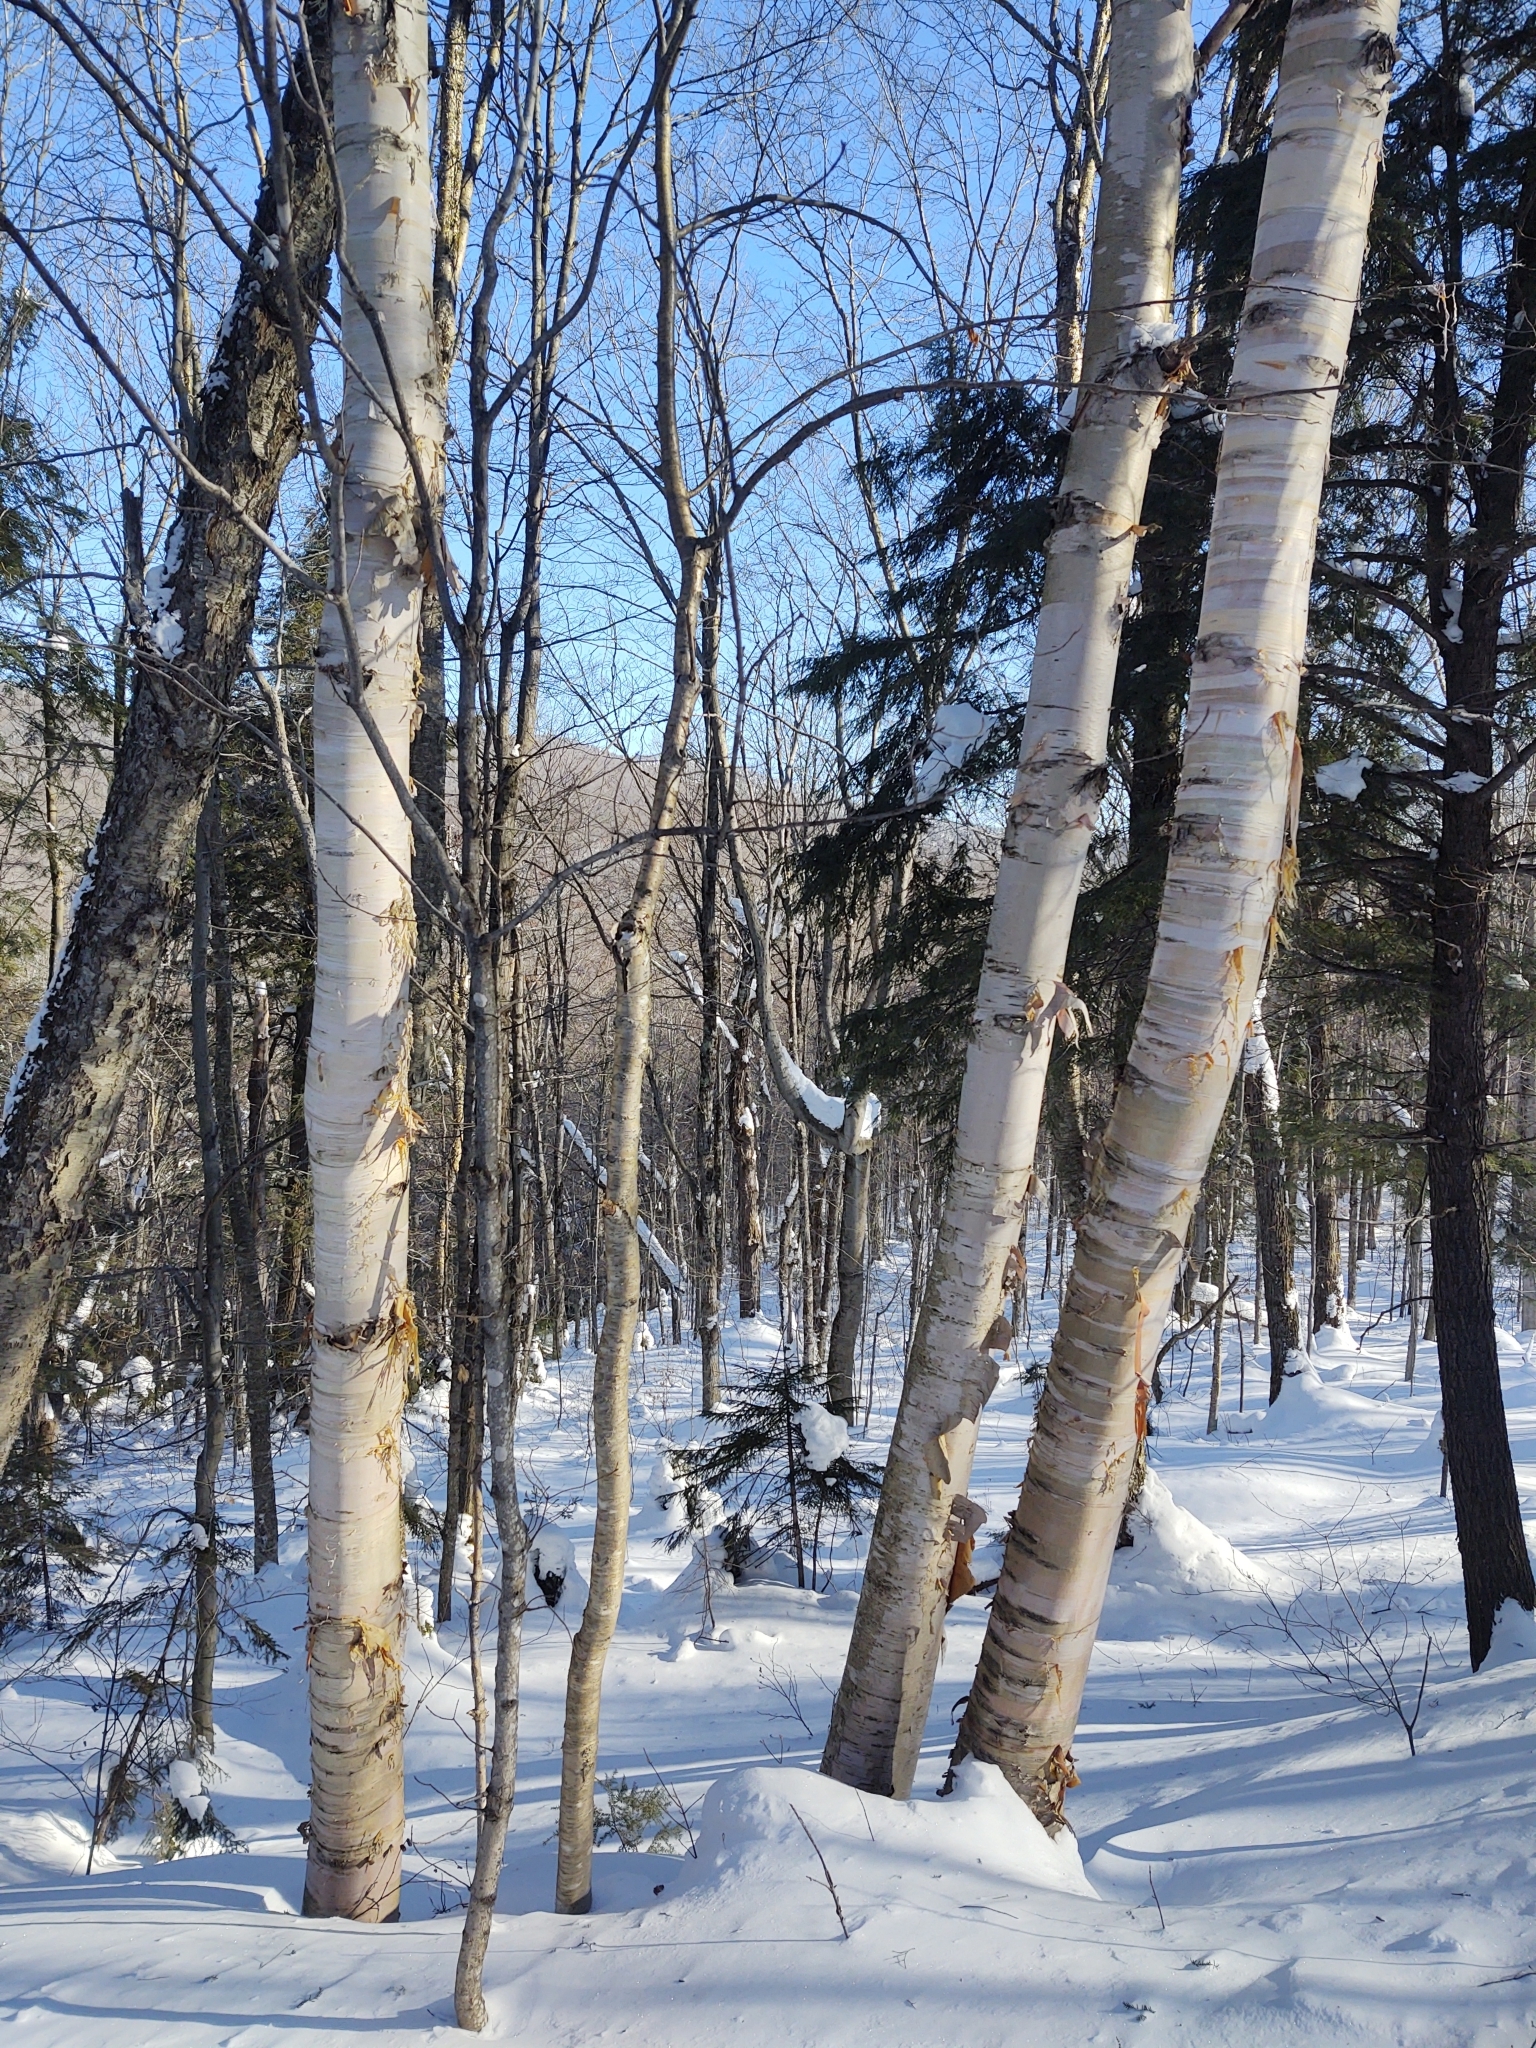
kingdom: Plantae
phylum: Tracheophyta
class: Magnoliopsida
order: Fagales
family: Betulaceae
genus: Betula
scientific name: Betula papyrifera
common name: Paper birch
